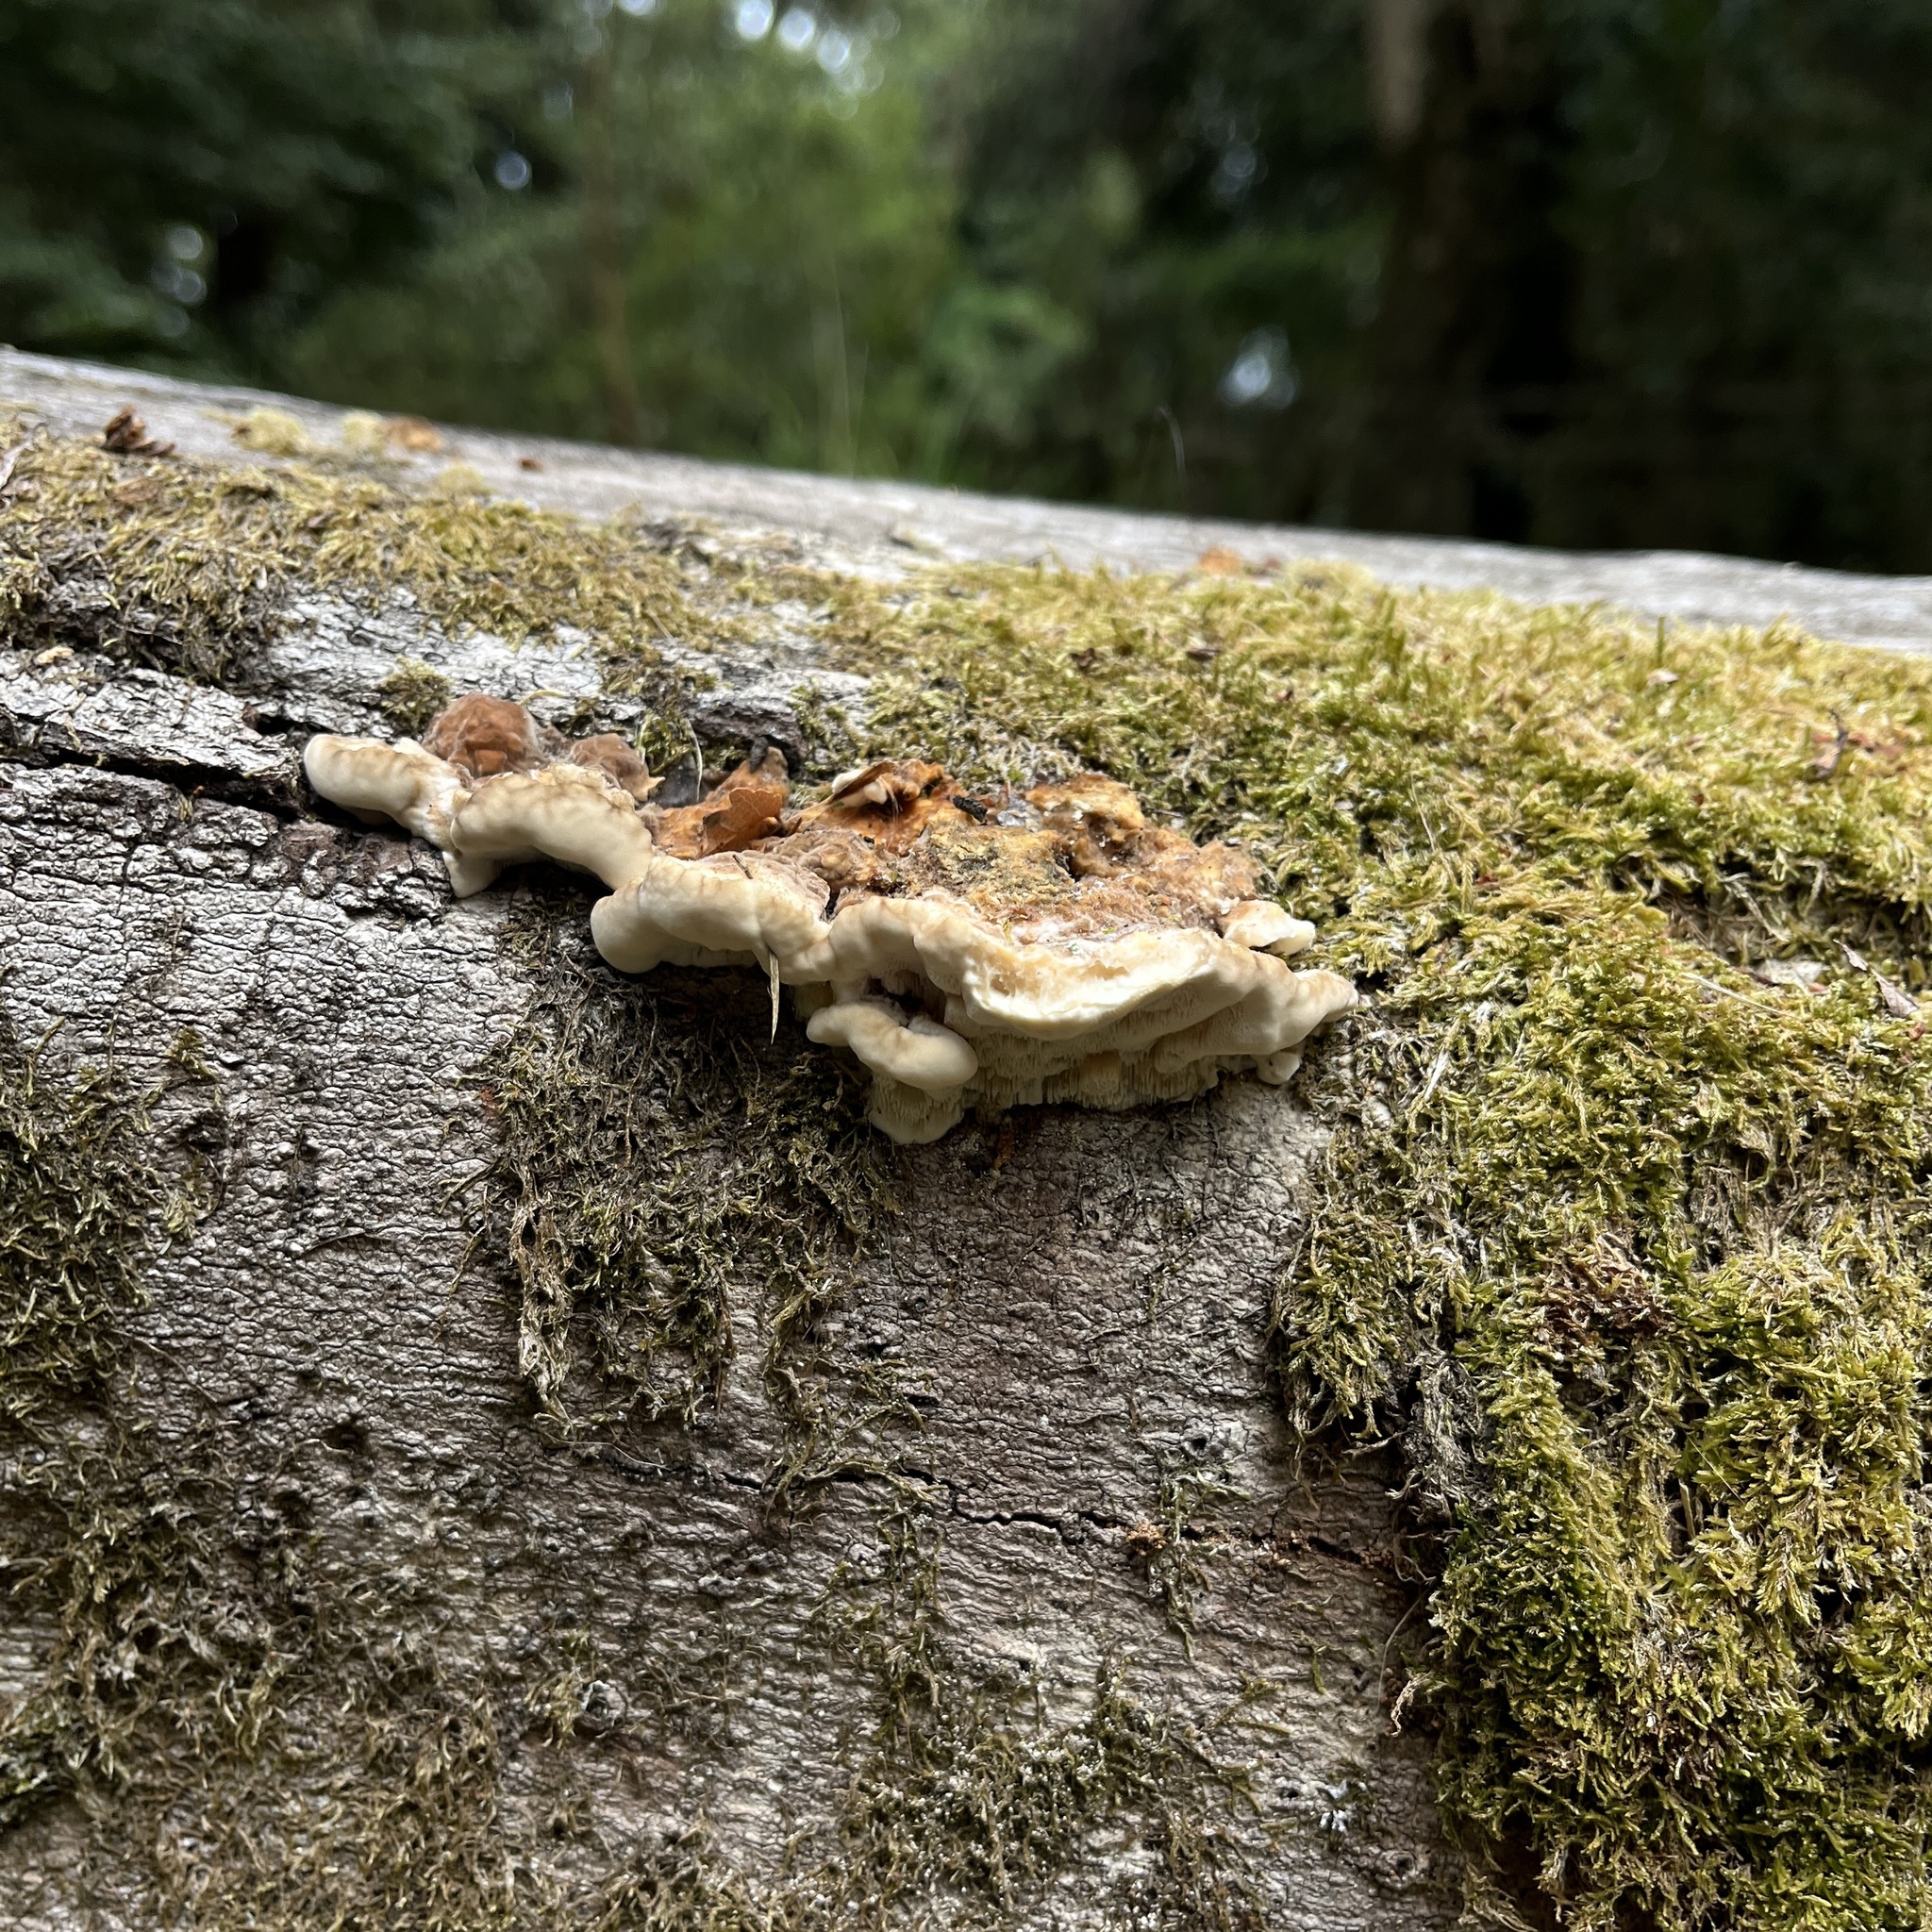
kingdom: Fungi
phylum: Basidiomycota
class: Agaricomycetes
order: Polyporales
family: Polyporaceae
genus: Trametes
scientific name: Trametes versicolor
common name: Turkeytail
